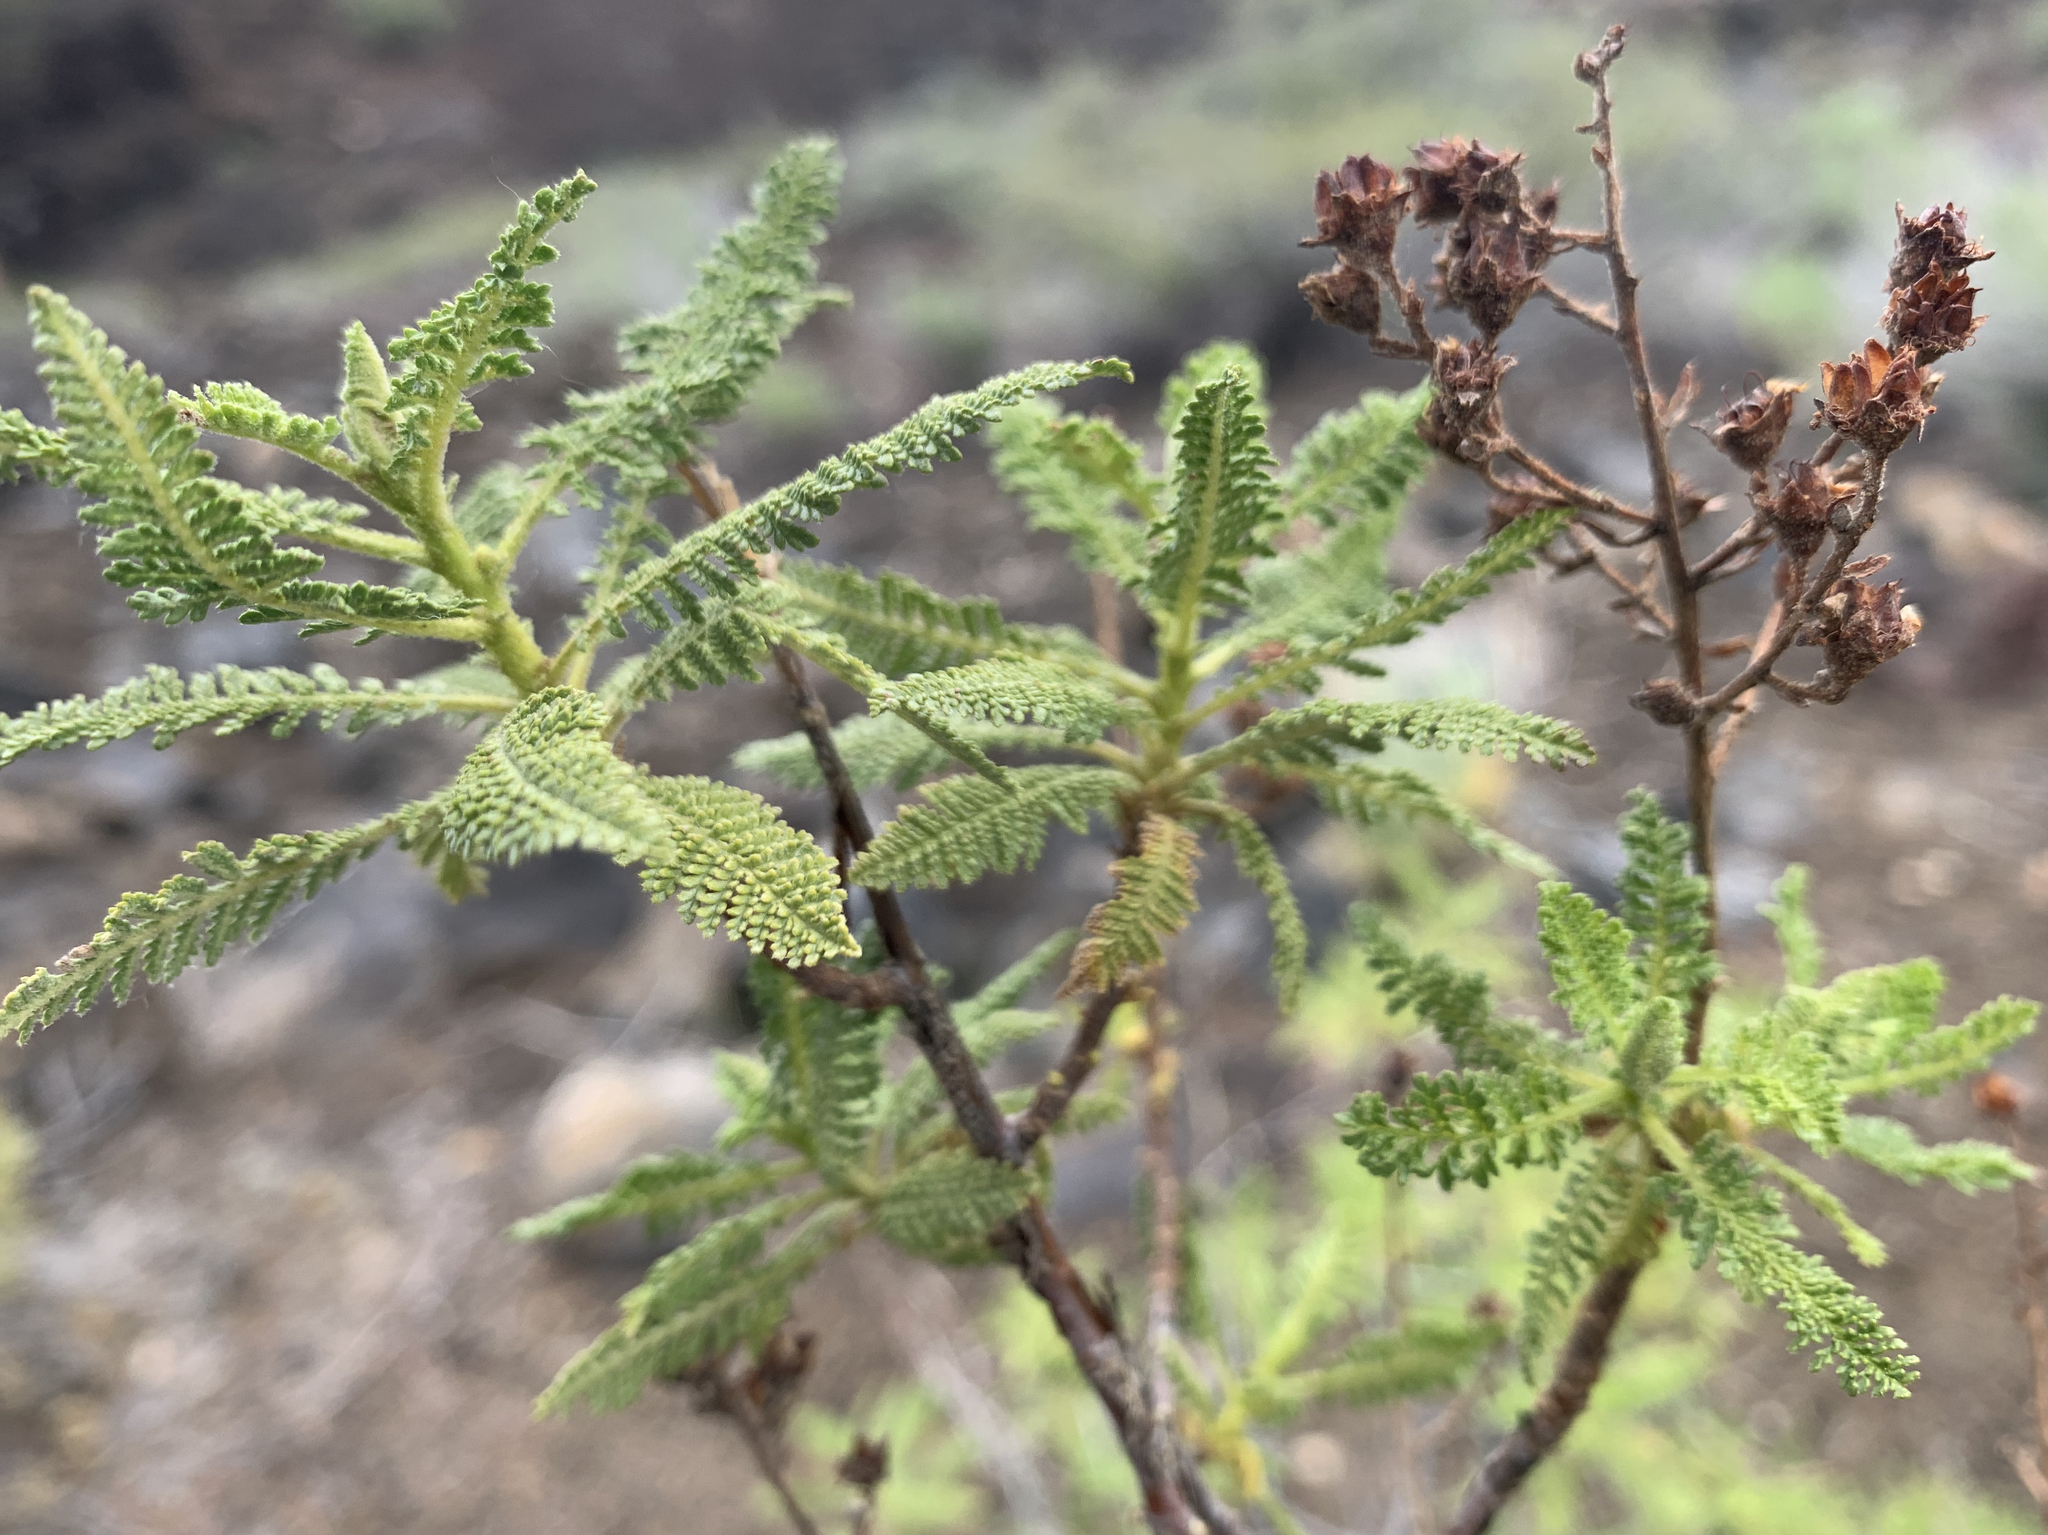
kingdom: Plantae
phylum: Tracheophyta
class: Magnoliopsida
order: Rosales
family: Rosaceae
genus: Chamaebatiaria
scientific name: Chamaebatiaria millefolium
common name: Fernbush
